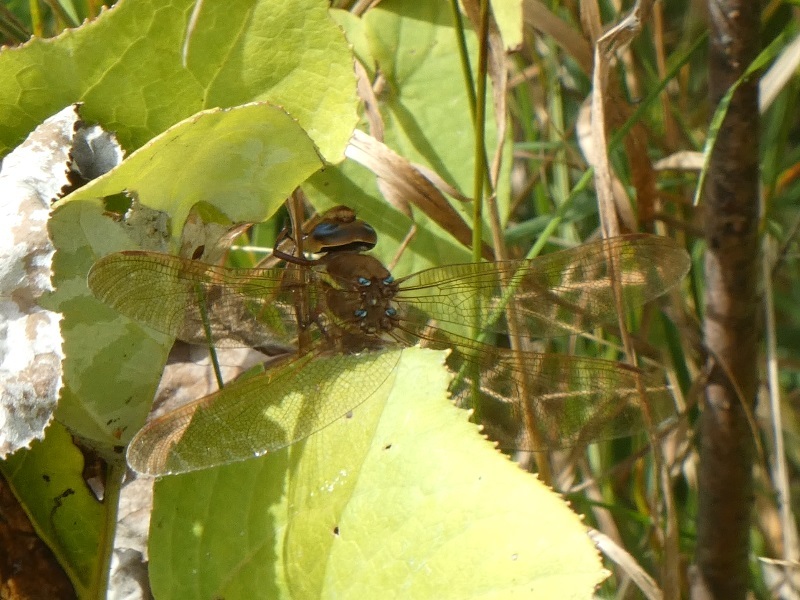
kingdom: Animalia
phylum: Arthropoda
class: Insecta
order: Odonata
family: Aeshnidae
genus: Aeshna
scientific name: Aeshna grandis
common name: Brown hawker
